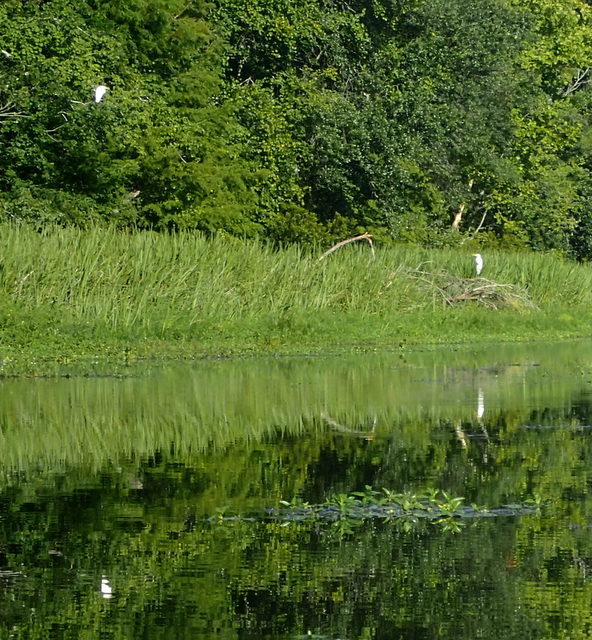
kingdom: Animalia
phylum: Chordata
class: Aves
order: Pelecaniformes
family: Ardeidae
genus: Ardea
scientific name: Ardea alba
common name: Great egret
